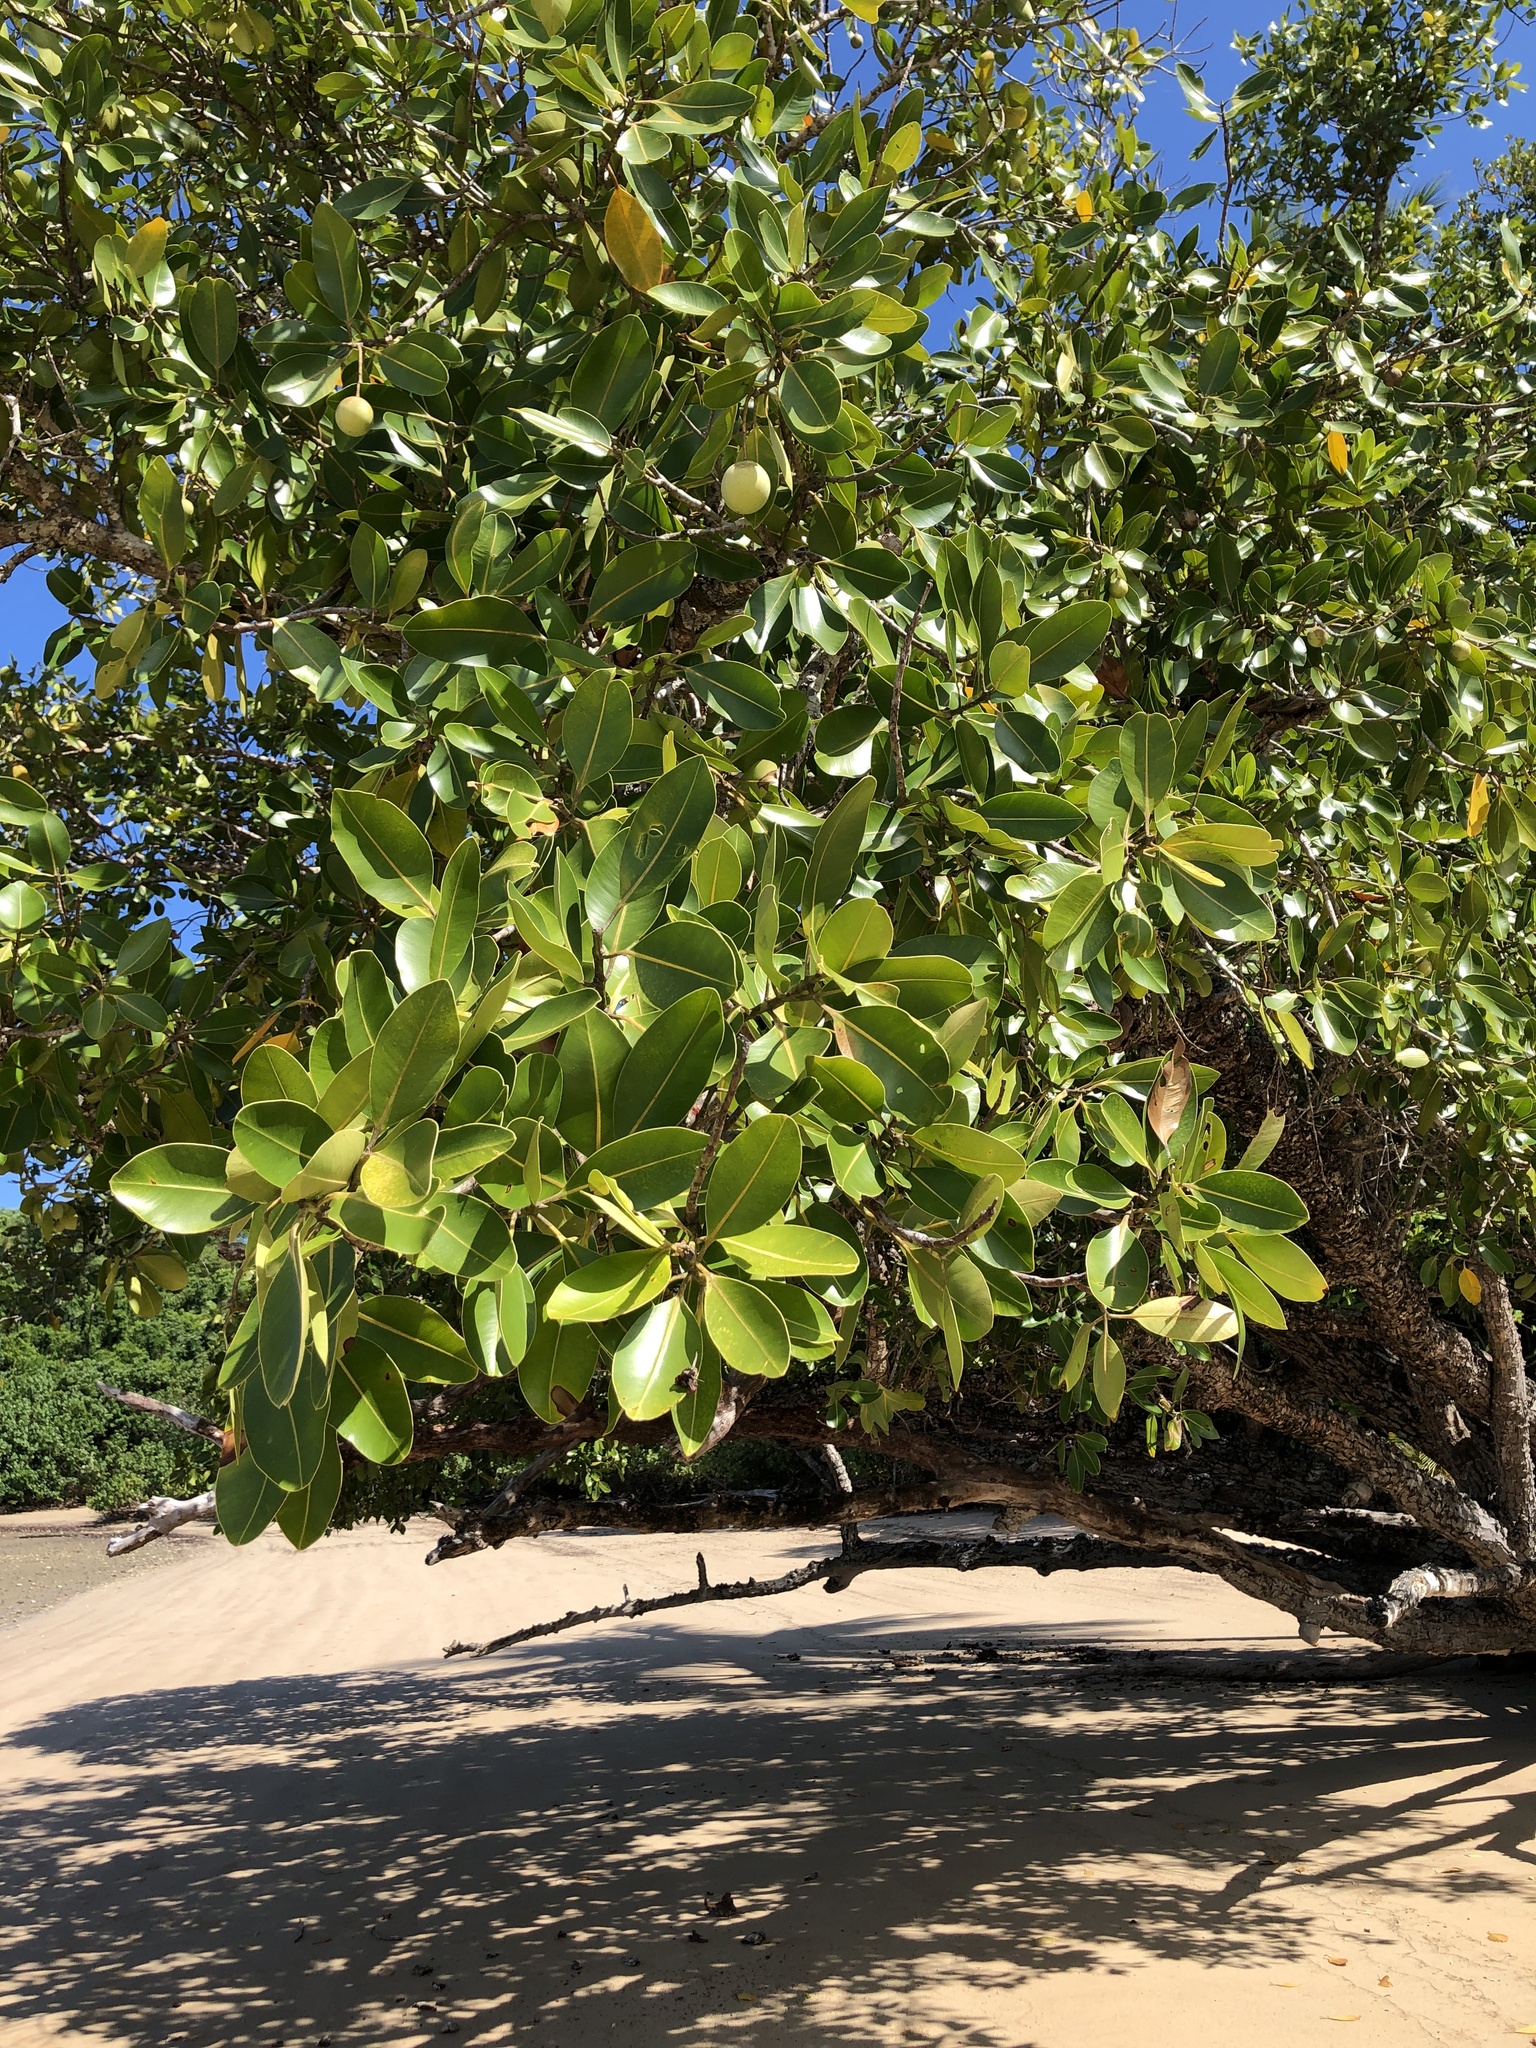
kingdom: Plantae
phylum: Tracheophyta
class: Magnoliopsida
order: Malpighiales
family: Calophyllaceae
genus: Calophyllum
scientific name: Calophyllum inophyllum
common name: Alexandrian laurel
